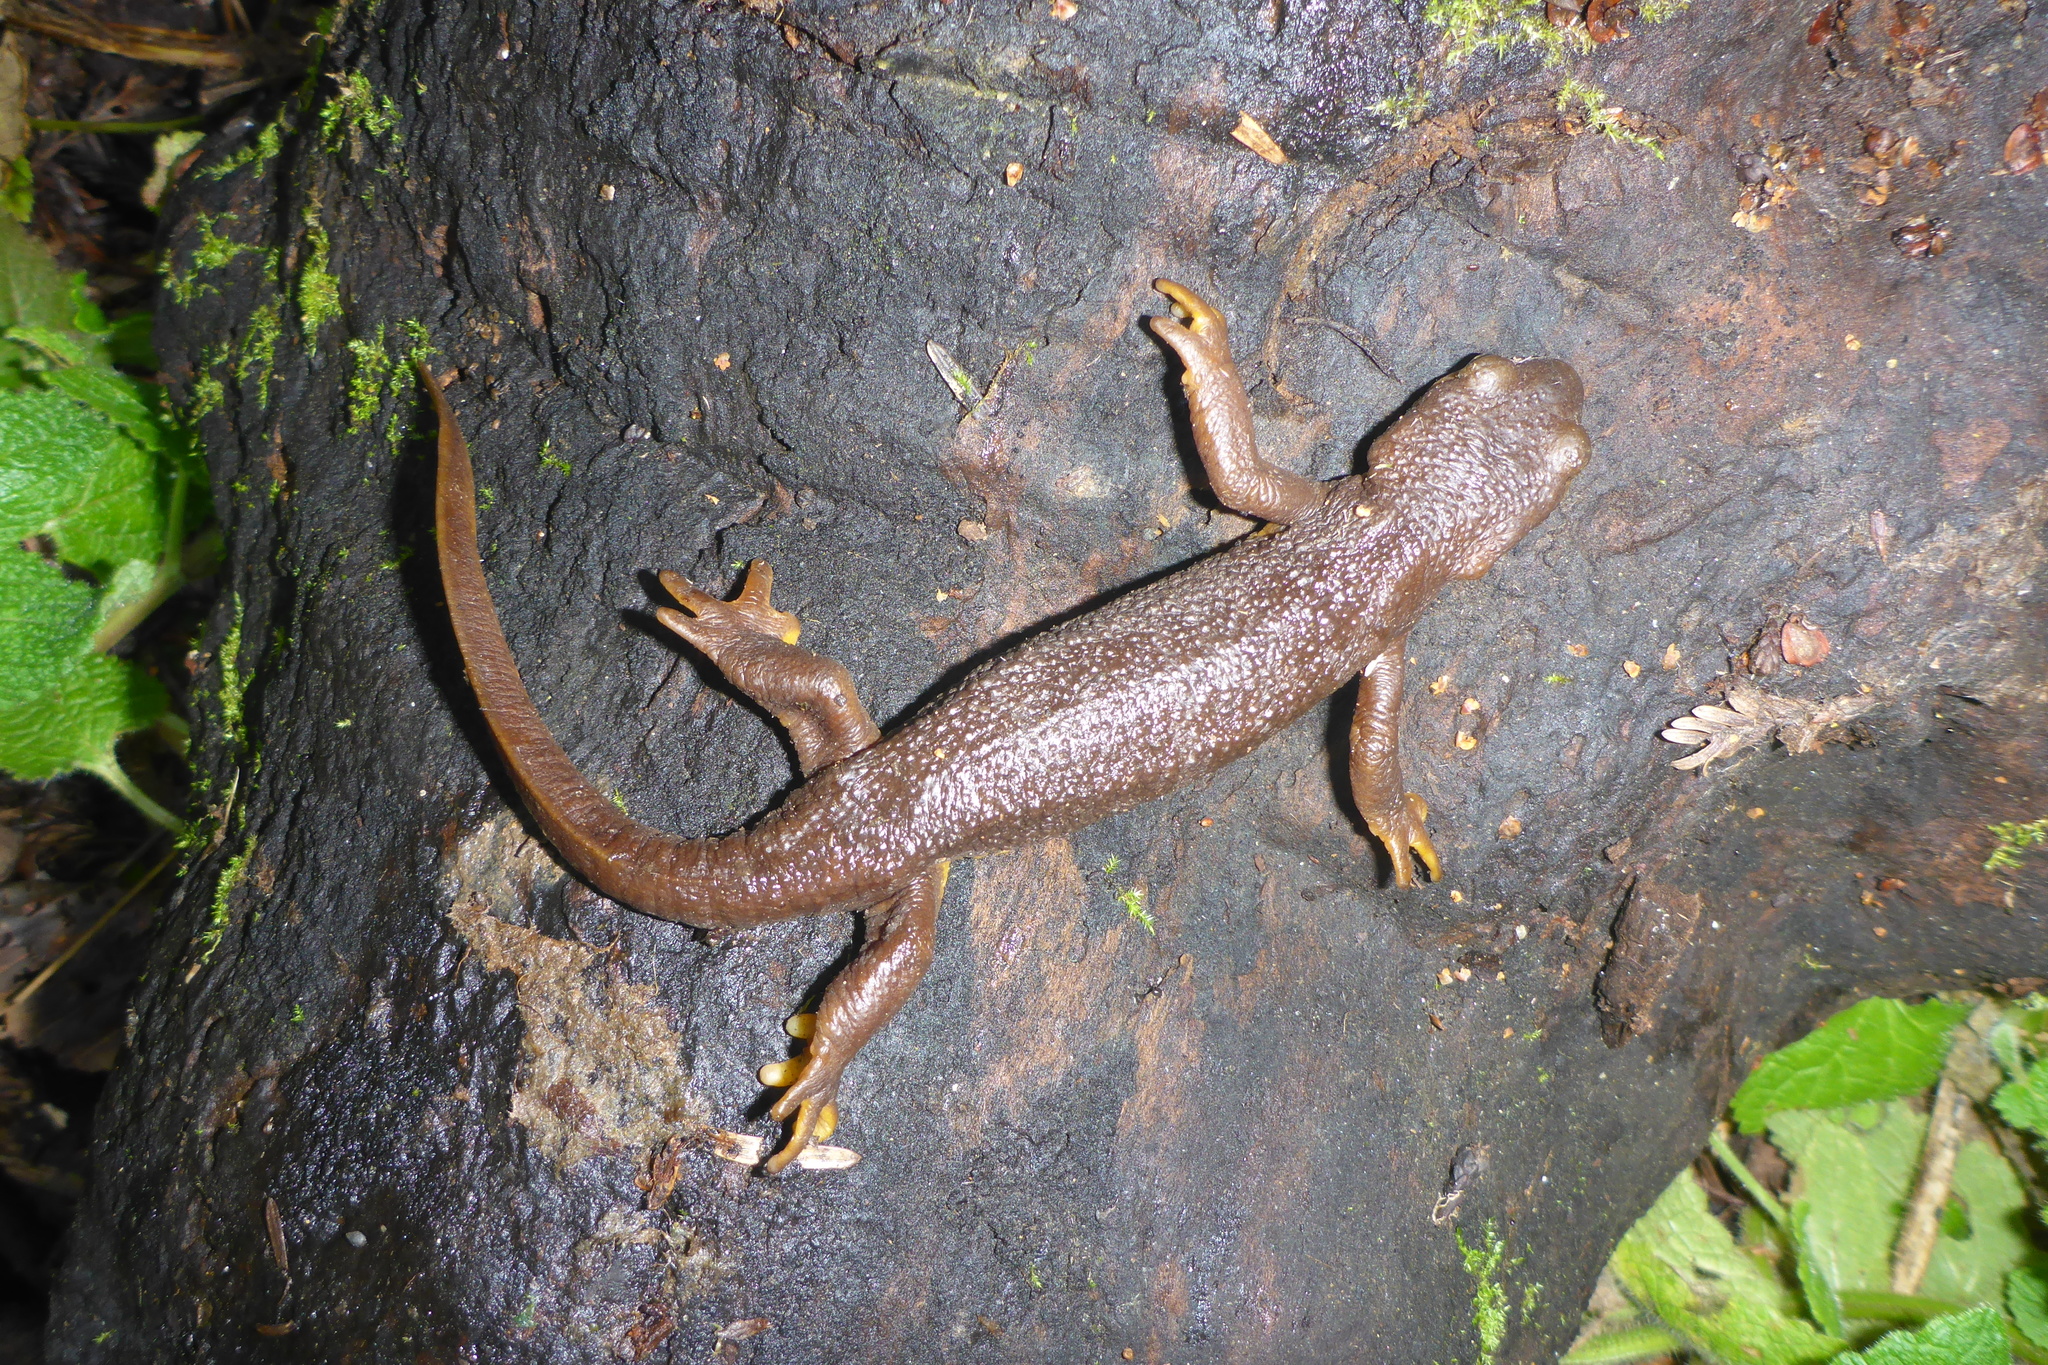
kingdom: Animalia
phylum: Chordata
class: Amphibia
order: Caudata
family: Salamandridae
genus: Taricha
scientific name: Taricha torosa
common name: California newt
